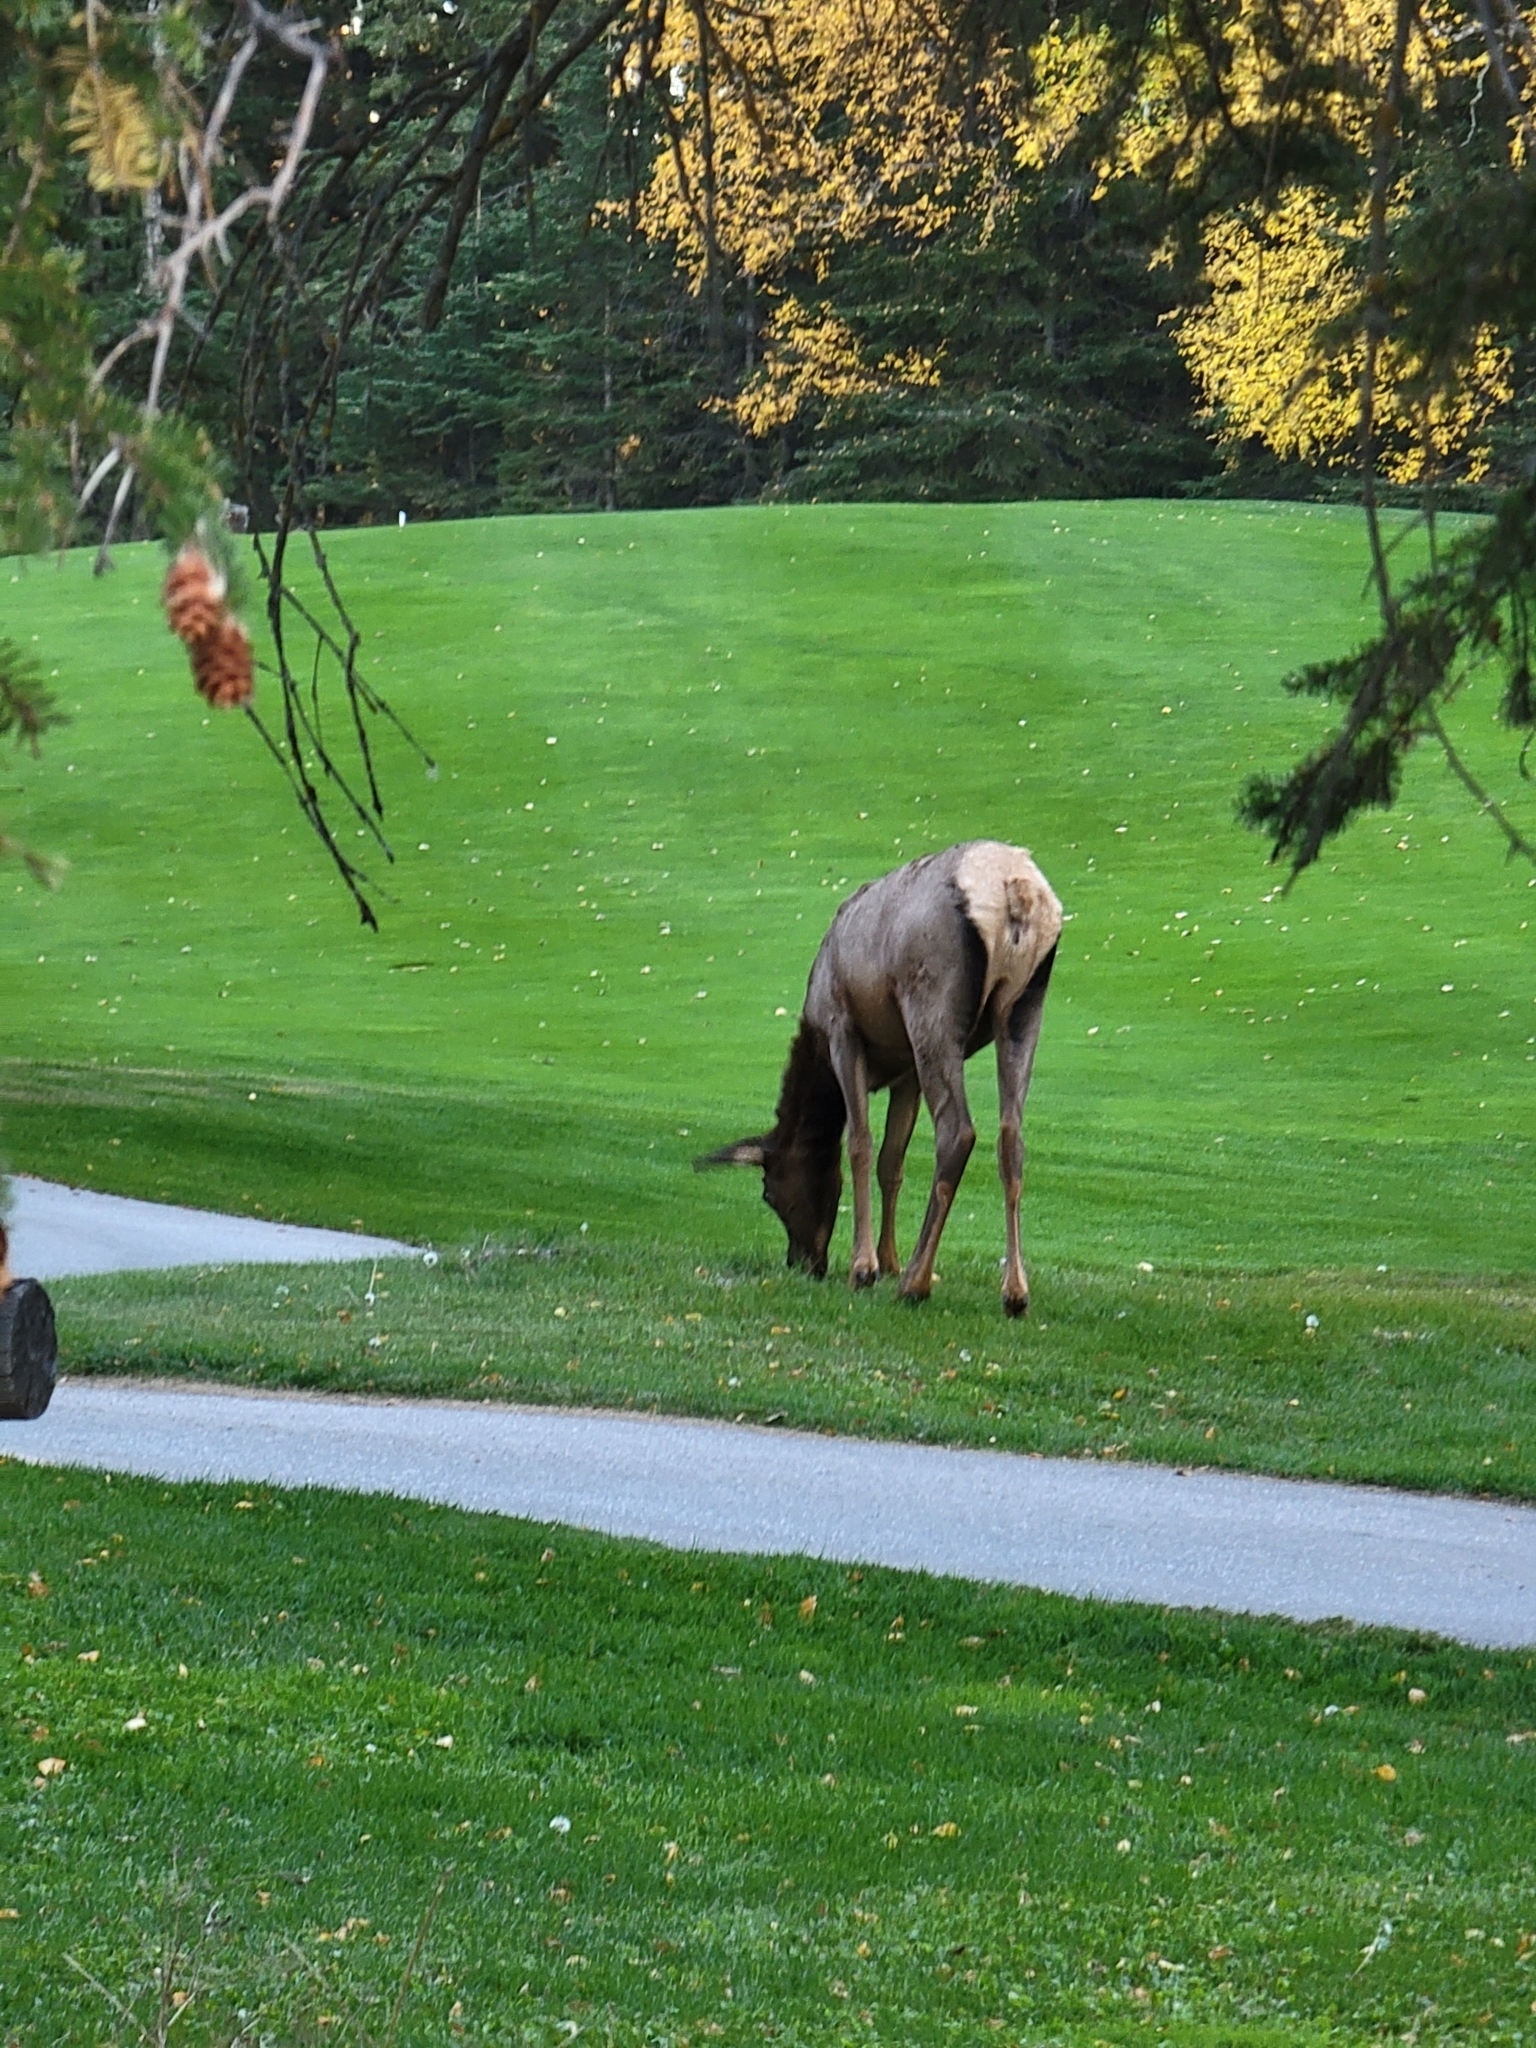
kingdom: Animalia
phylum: Chordata
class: Mammalia
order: Artiodactyla
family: Cervidae
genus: Cervus
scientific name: Cervus elaphus
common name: Red deer
